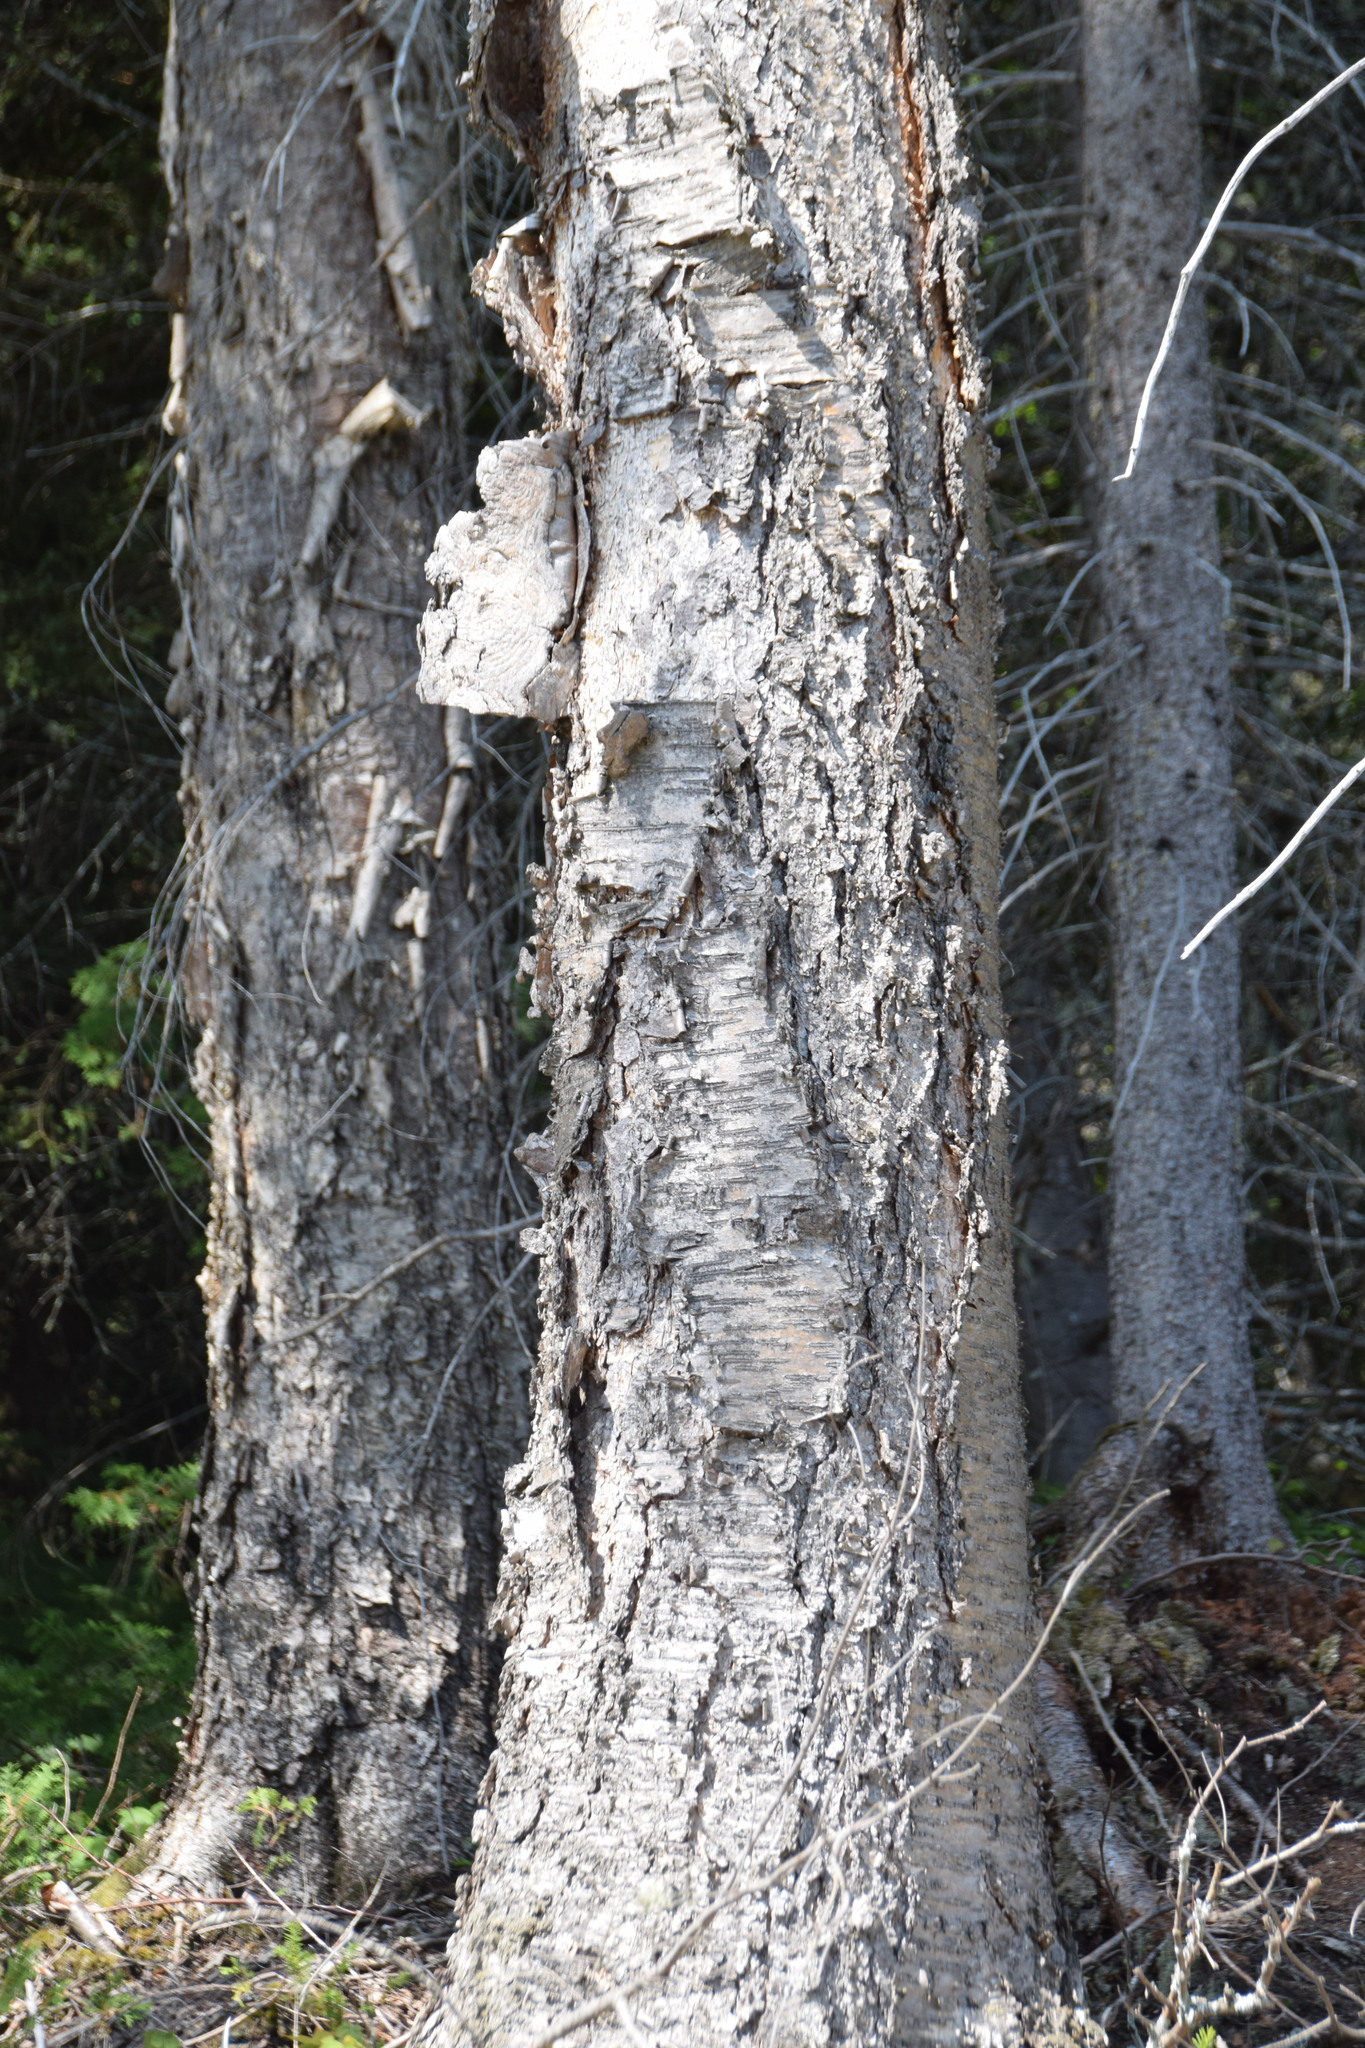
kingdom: Plantae
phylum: Tracheophyta
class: Magnoliopsida
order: Fagales
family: Betulaceae
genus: Betula
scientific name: Betula alleghaniensis
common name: Yellow birch
